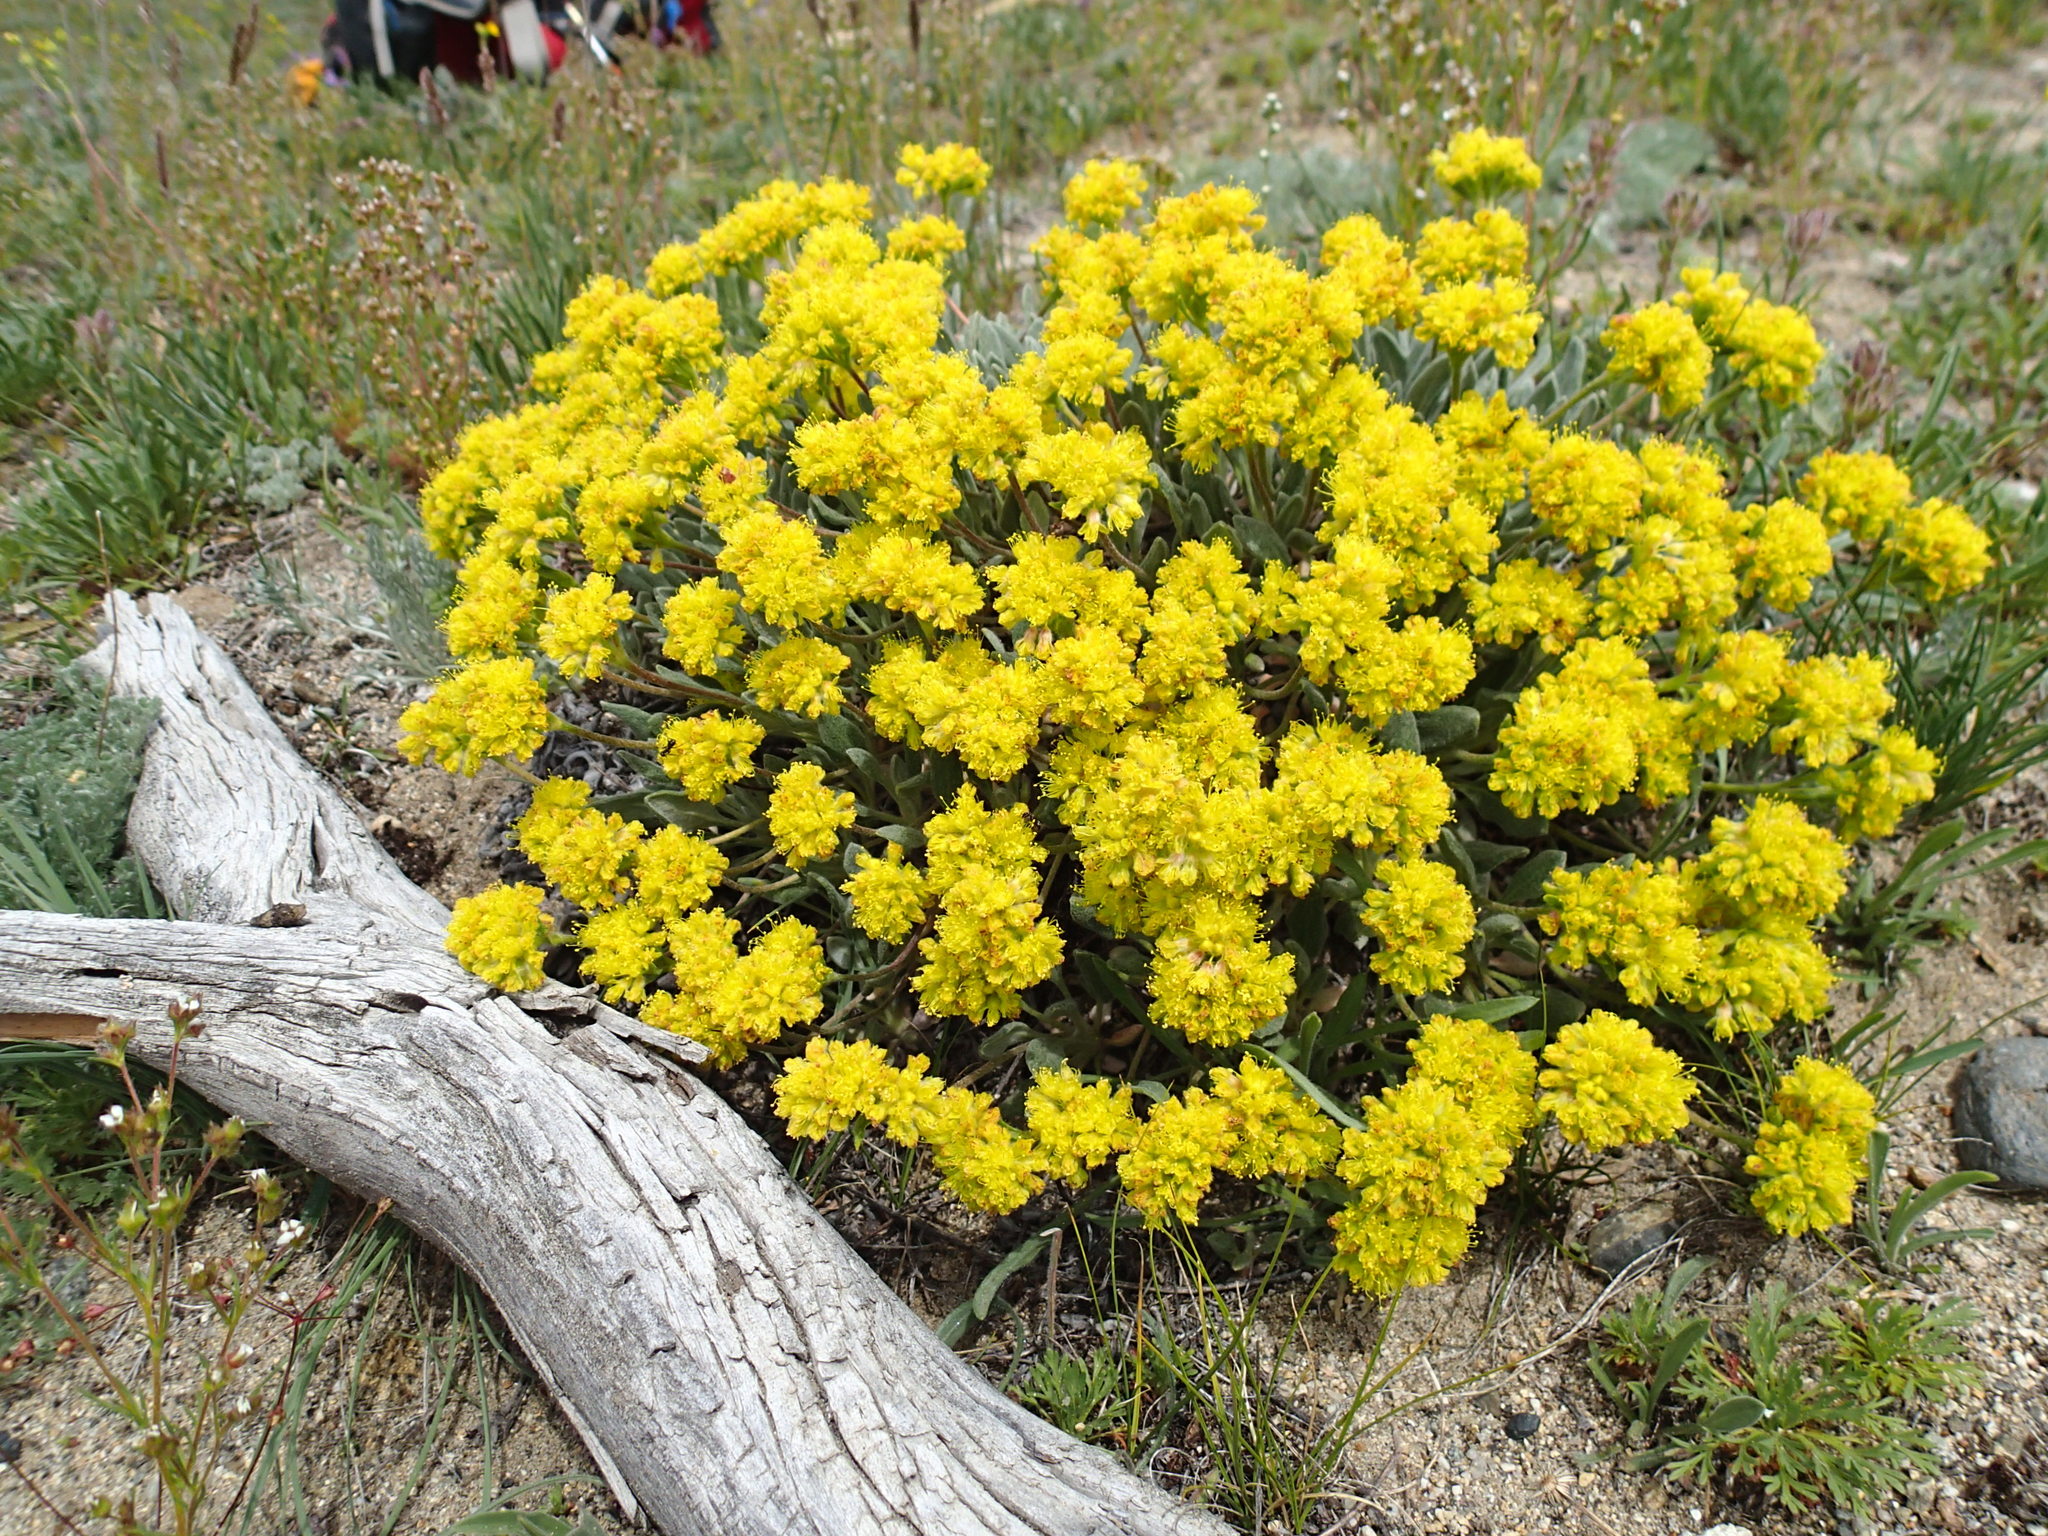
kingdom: Plantae
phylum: Tracheophyta
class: Magnoliopsida
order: Caryophyllales
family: Polygonaceae
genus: Eriogonum
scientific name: Eriogonum flavum
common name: Alpine golden wild buckwheat
